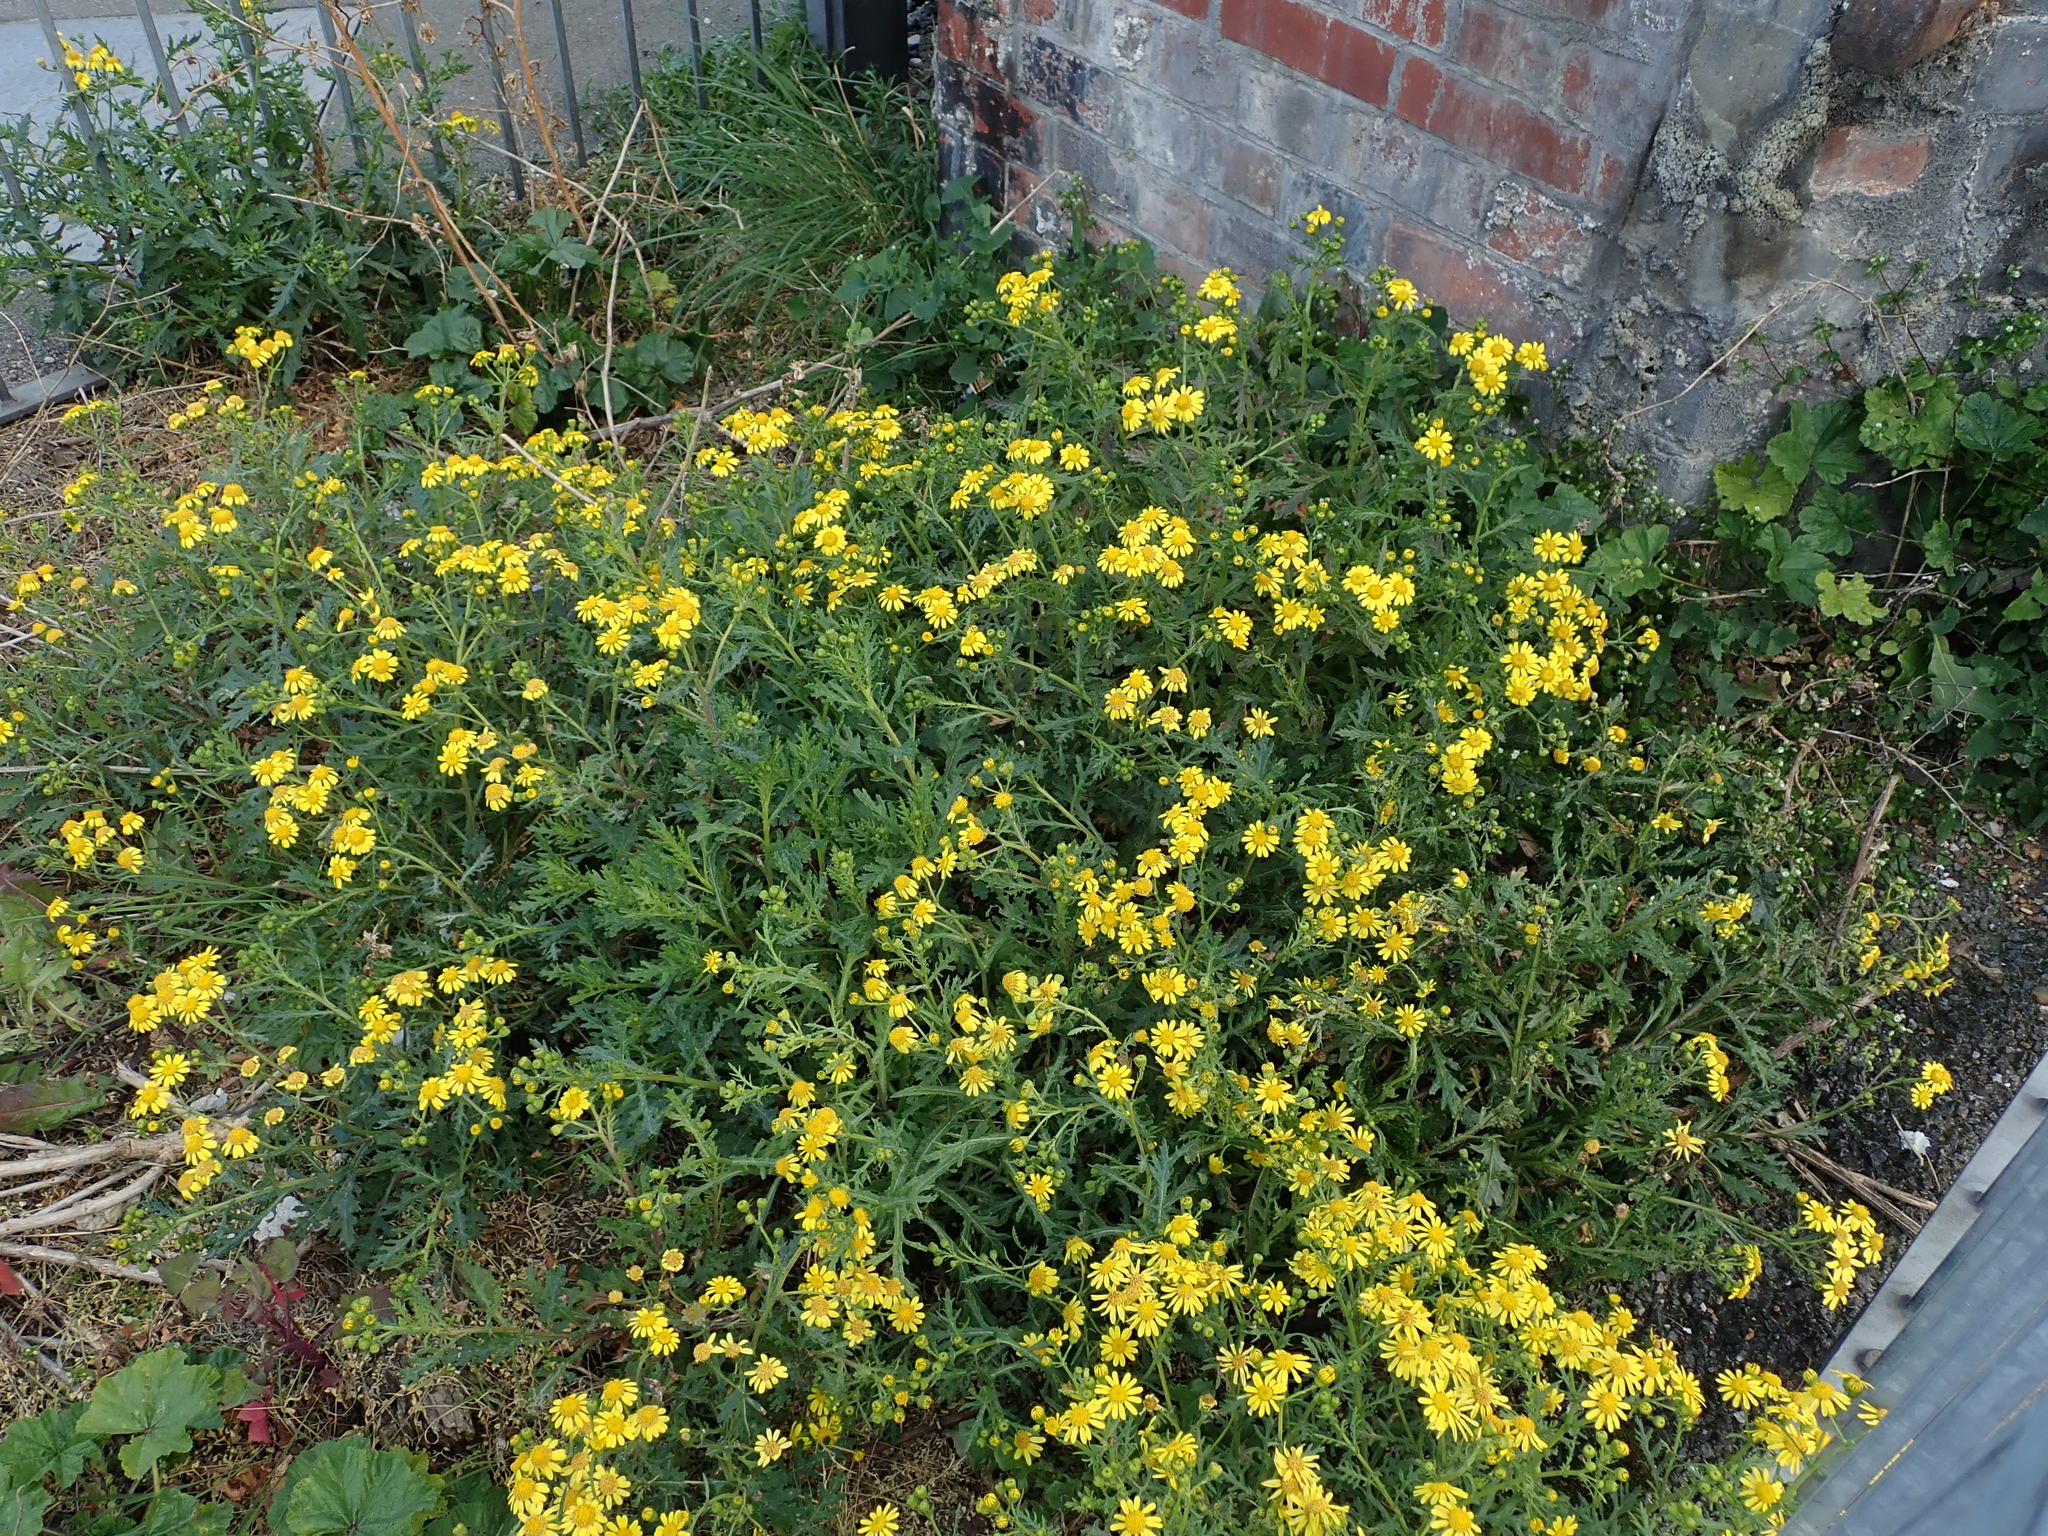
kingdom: Plantae
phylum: Tracheophyta
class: Magnoliopsida
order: Asterales
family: Asteraceae
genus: Senecio
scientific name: Senecio squalidus
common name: Oxford ragwort
